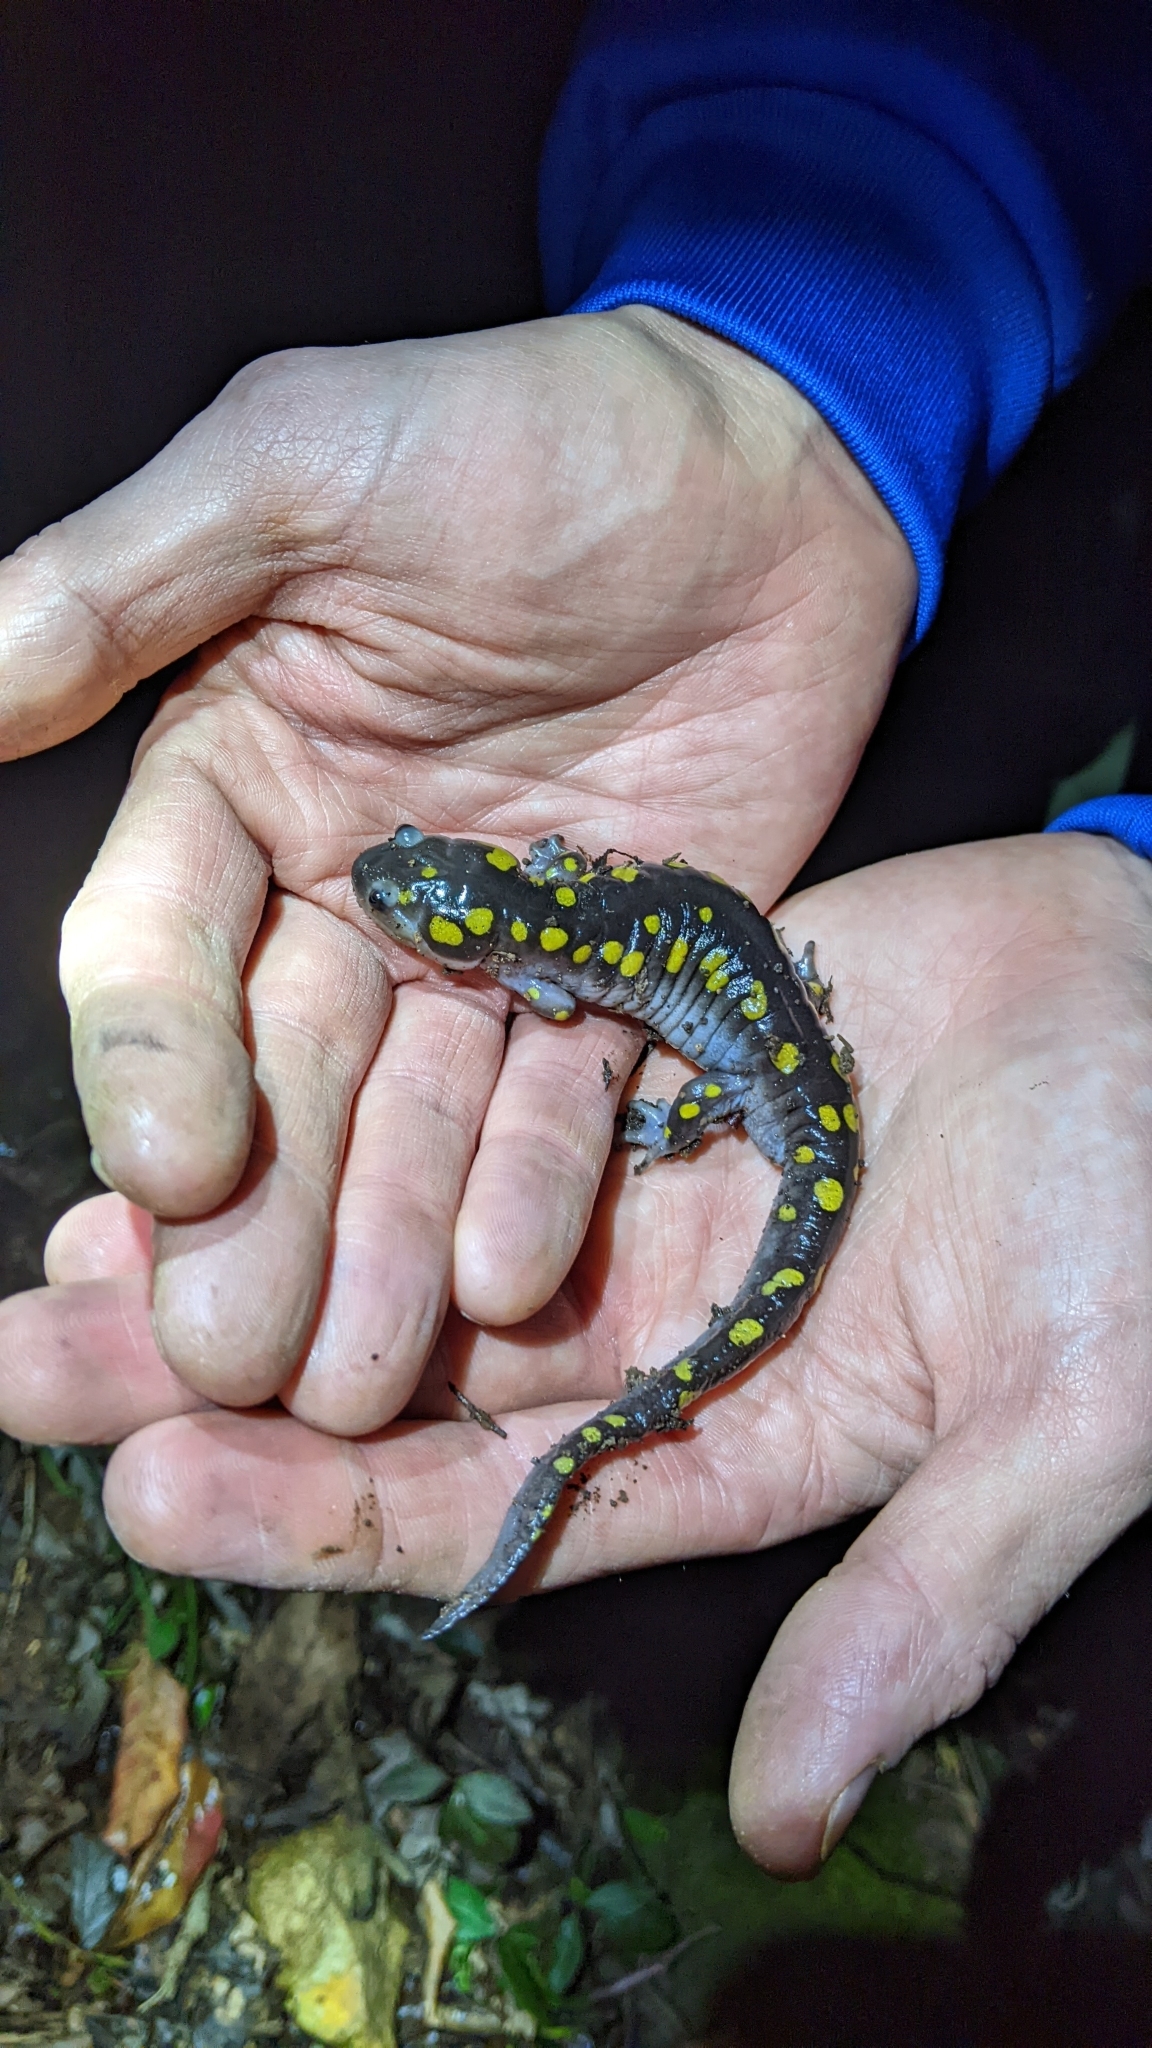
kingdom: Animalia
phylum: Chordata
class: Amphibia
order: Caudata
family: Ambystomatidae
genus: Ambystoma
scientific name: Ambystoma maculatum
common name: Spotted salamander
